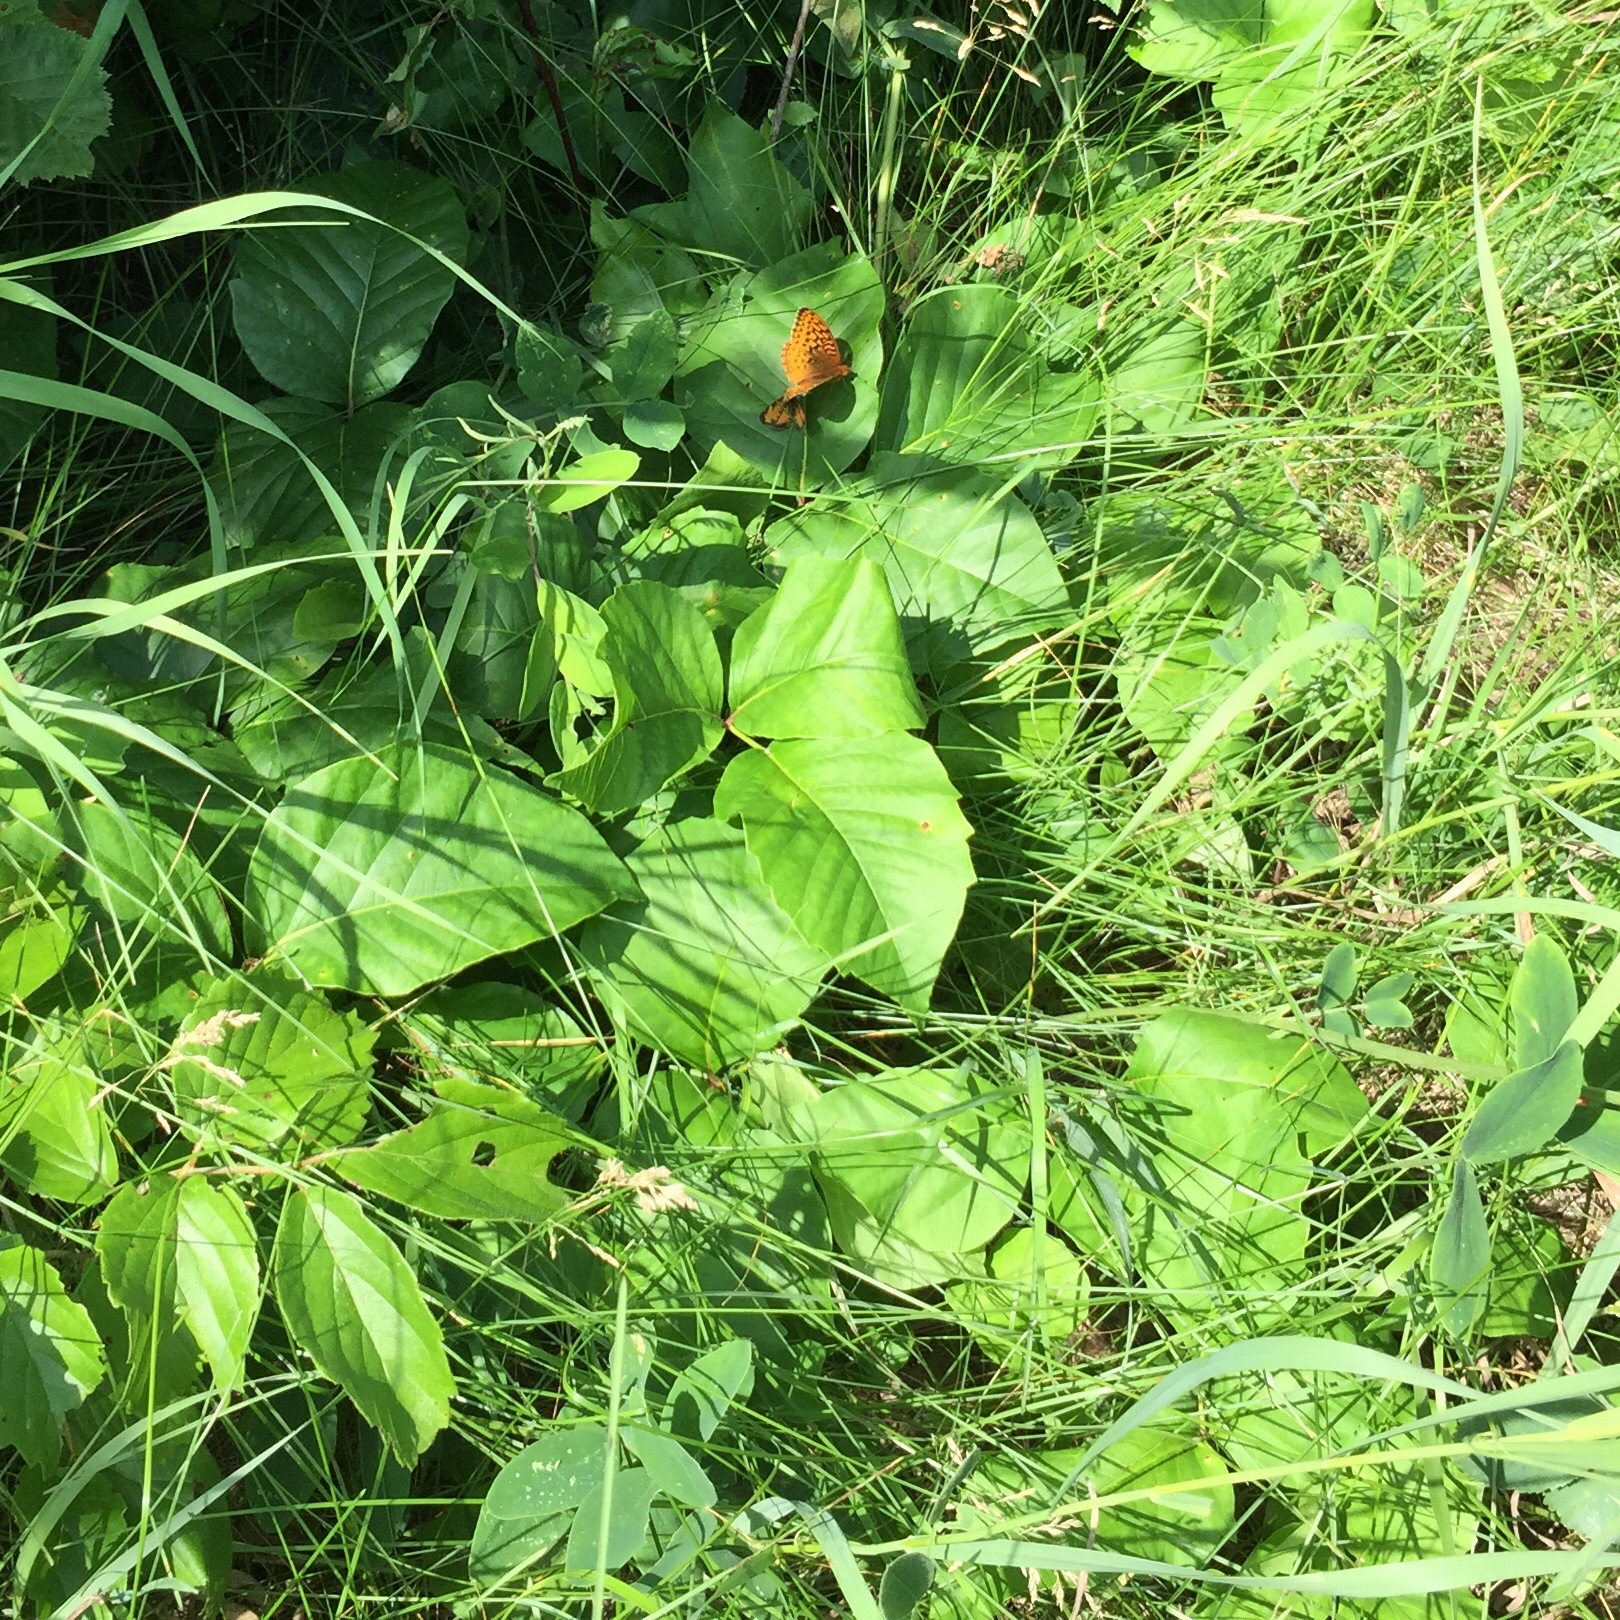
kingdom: Plantae
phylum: Tracheophyta
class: Magnoliopsida
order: Sapindales
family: Anacardiaceae
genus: Toxicodendron
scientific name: Toxicodendron rydbergii
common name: Rydberg's poison-ivy
